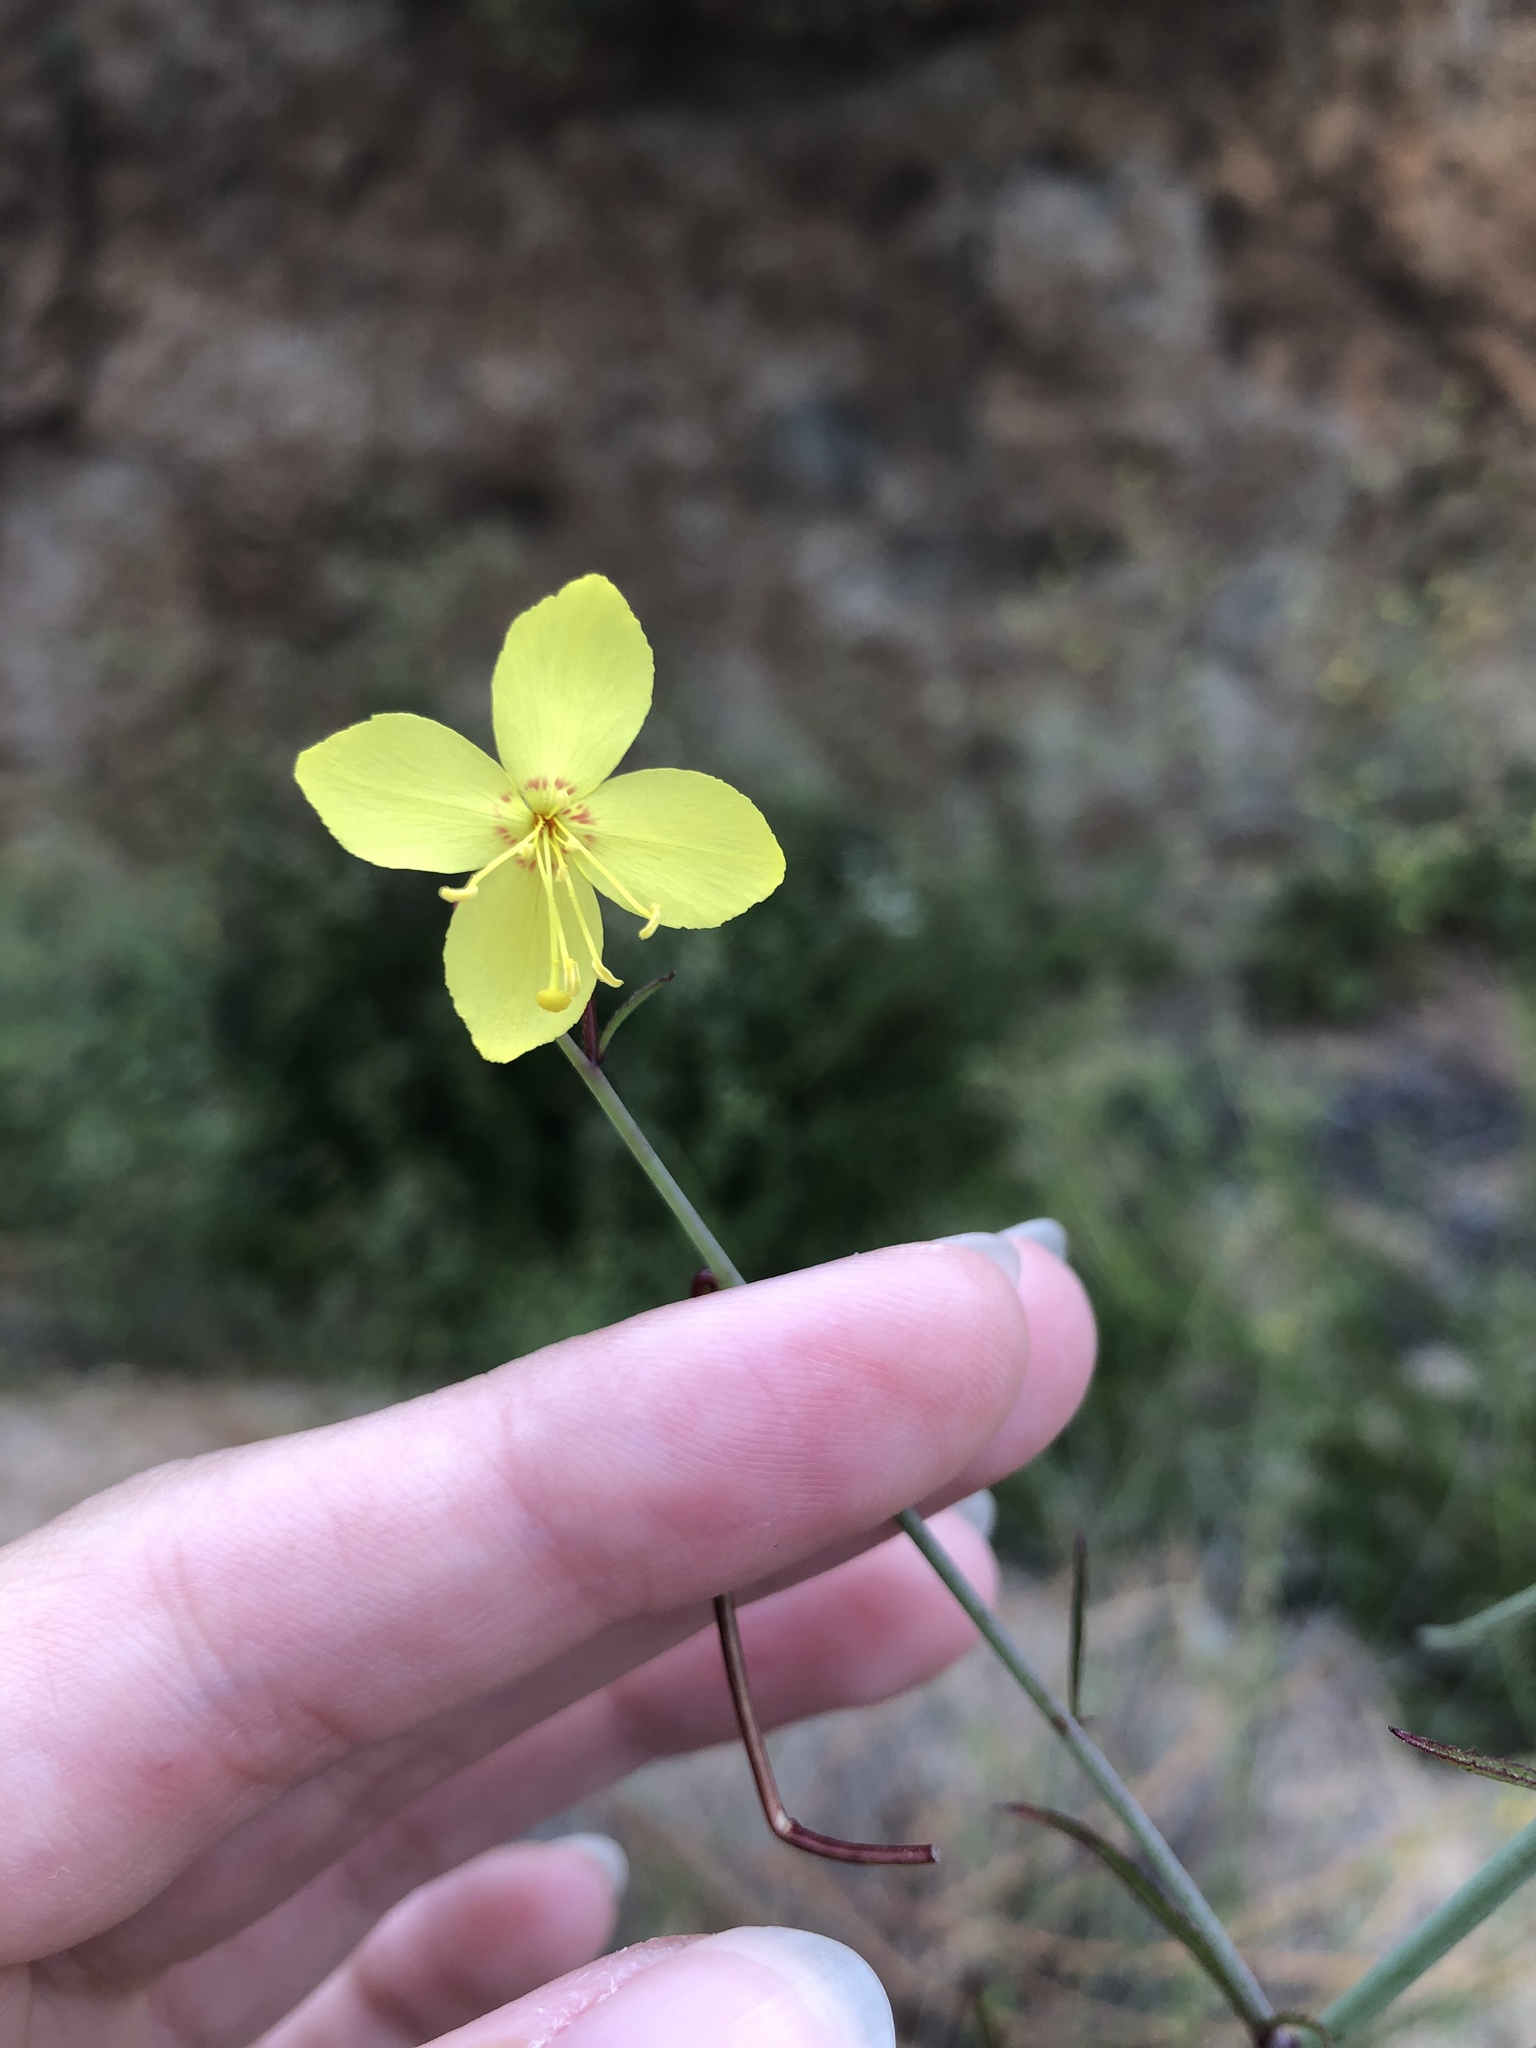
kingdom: Plantae
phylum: Tracheophyta
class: Magnoliopsida
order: Myrtales
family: Onagraceae
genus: Eulobus
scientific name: Eulobus californicus
